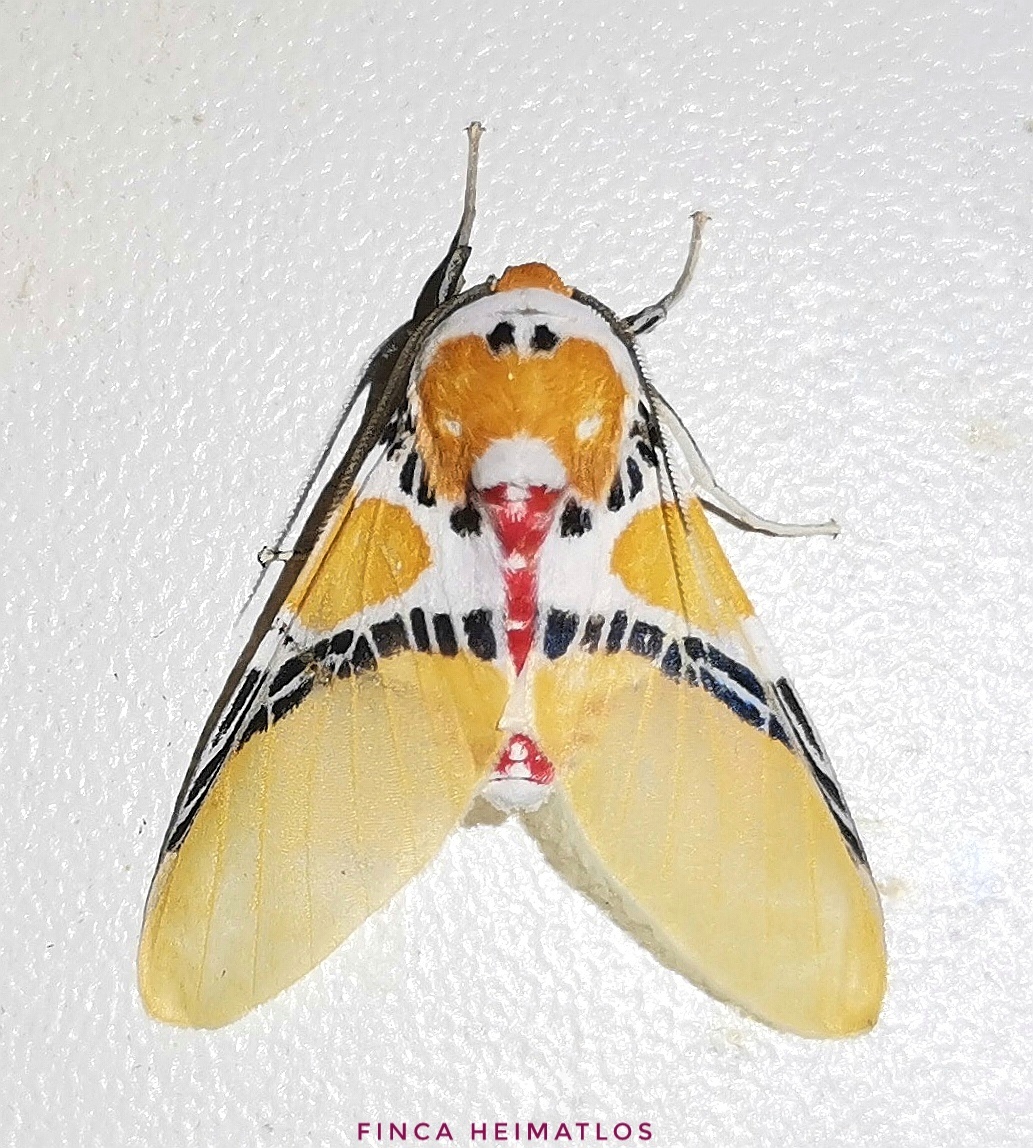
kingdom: Animalia
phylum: Arthropoda
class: Insecta
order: Lepidoptera
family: Erebidae
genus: Idalus
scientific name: Idalus critheis
